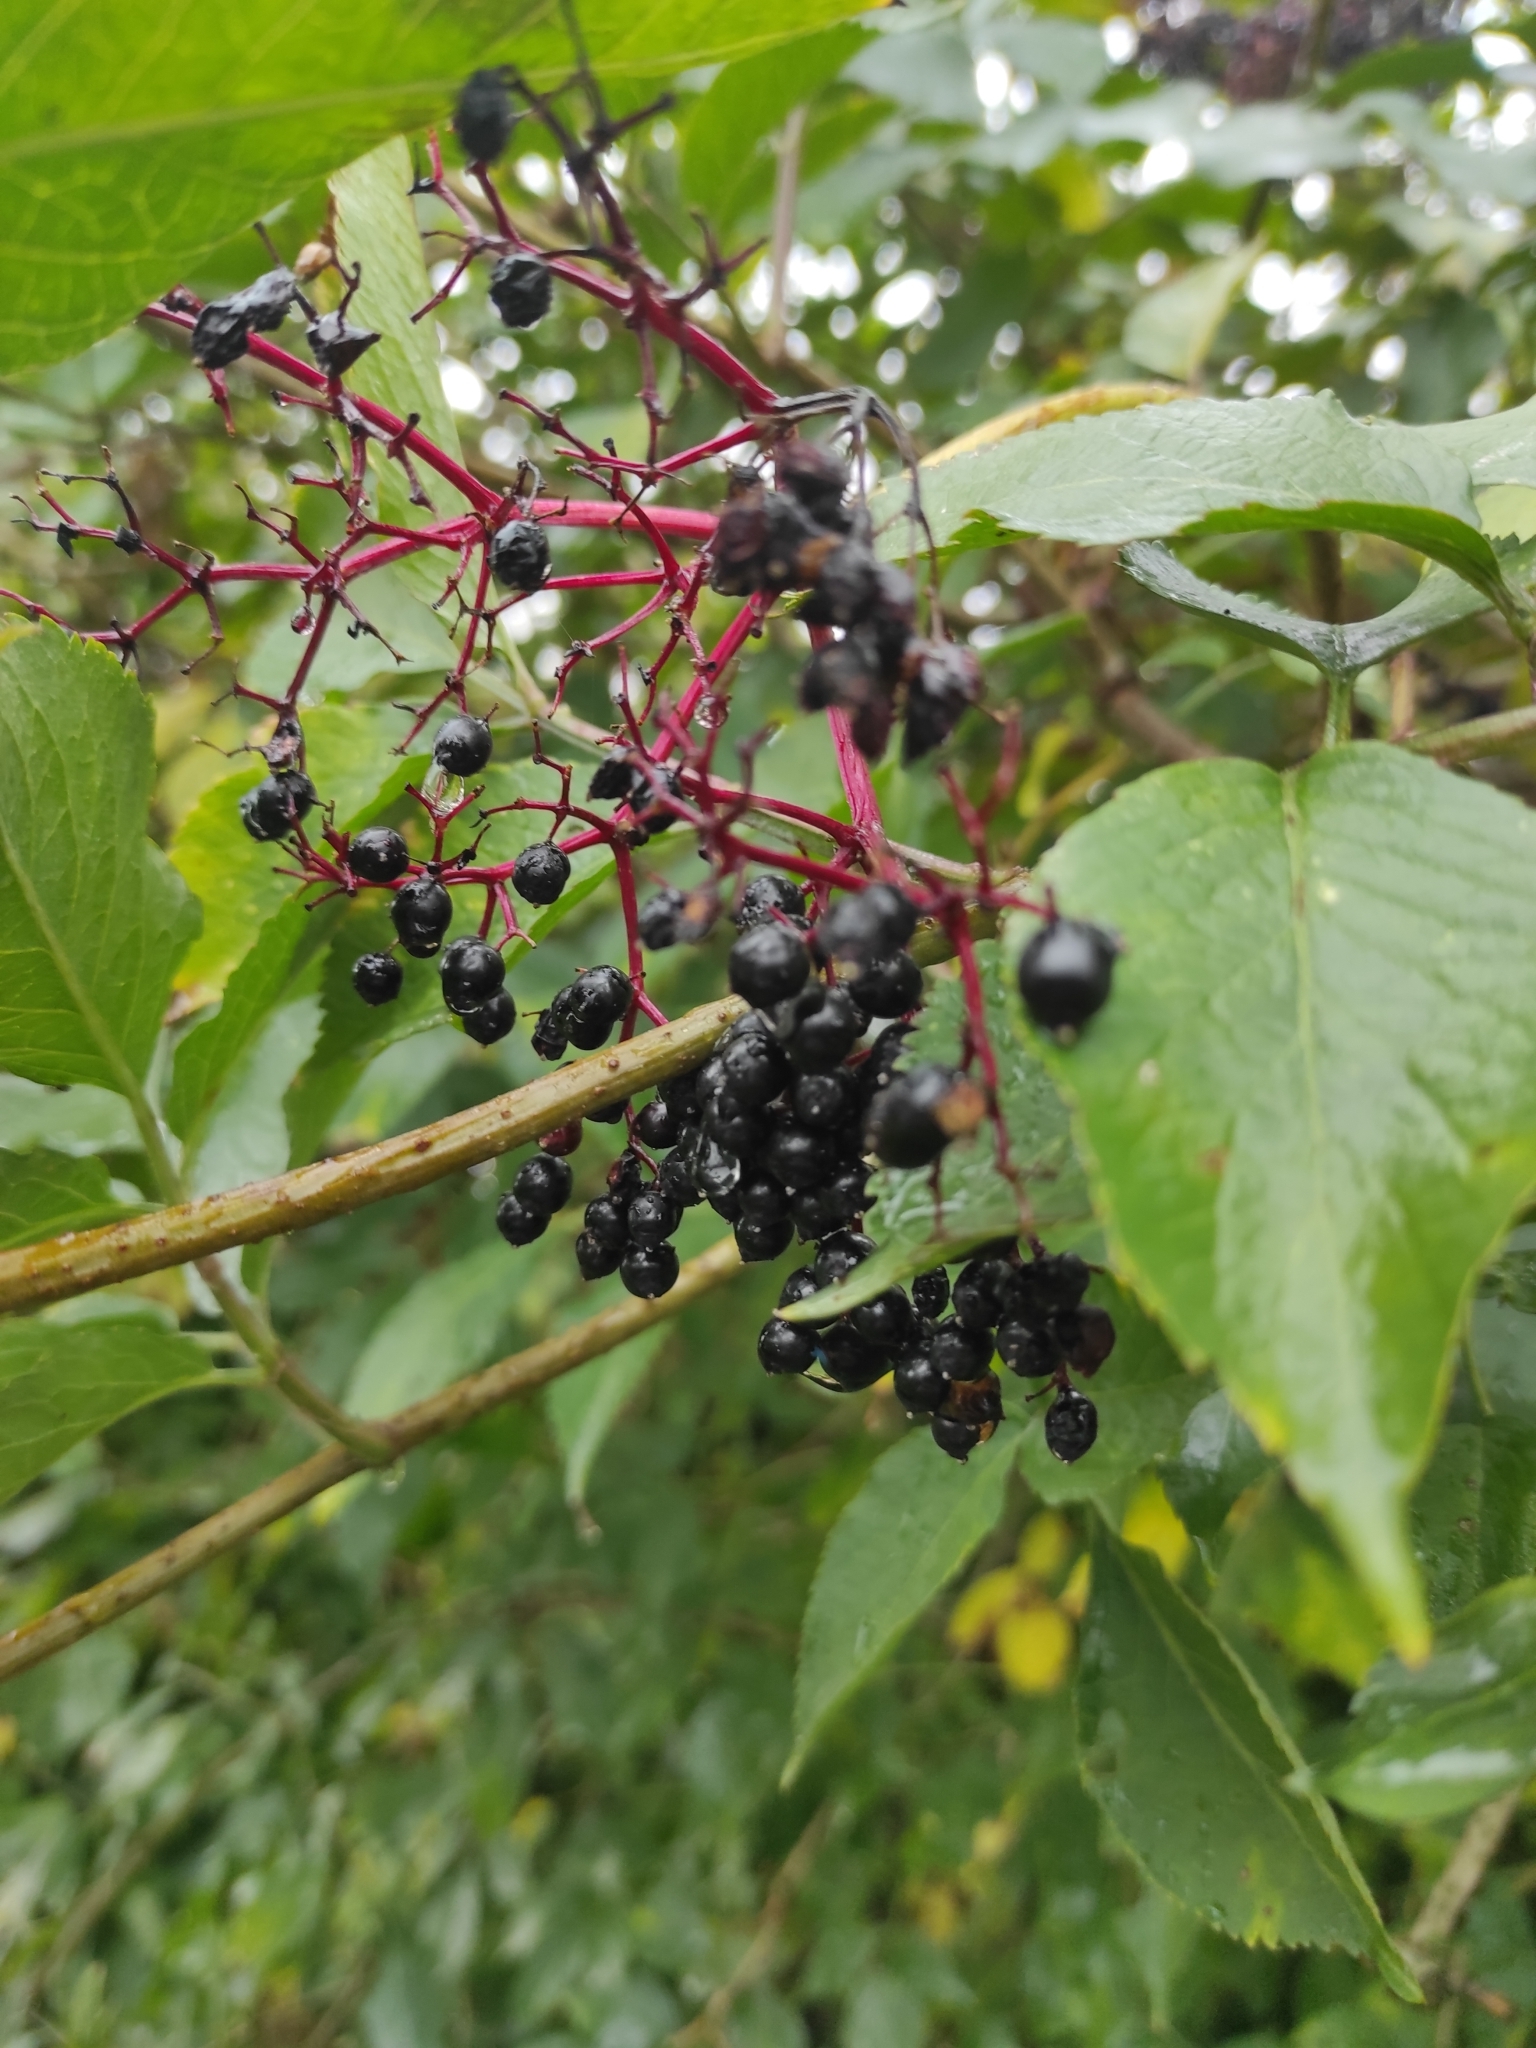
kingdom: Plantae
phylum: Tracheophyta
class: Magnoliopsida
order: Dipsacales
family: Viburnaceae
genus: Sambucus
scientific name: Sambucus nigra
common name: Elder
